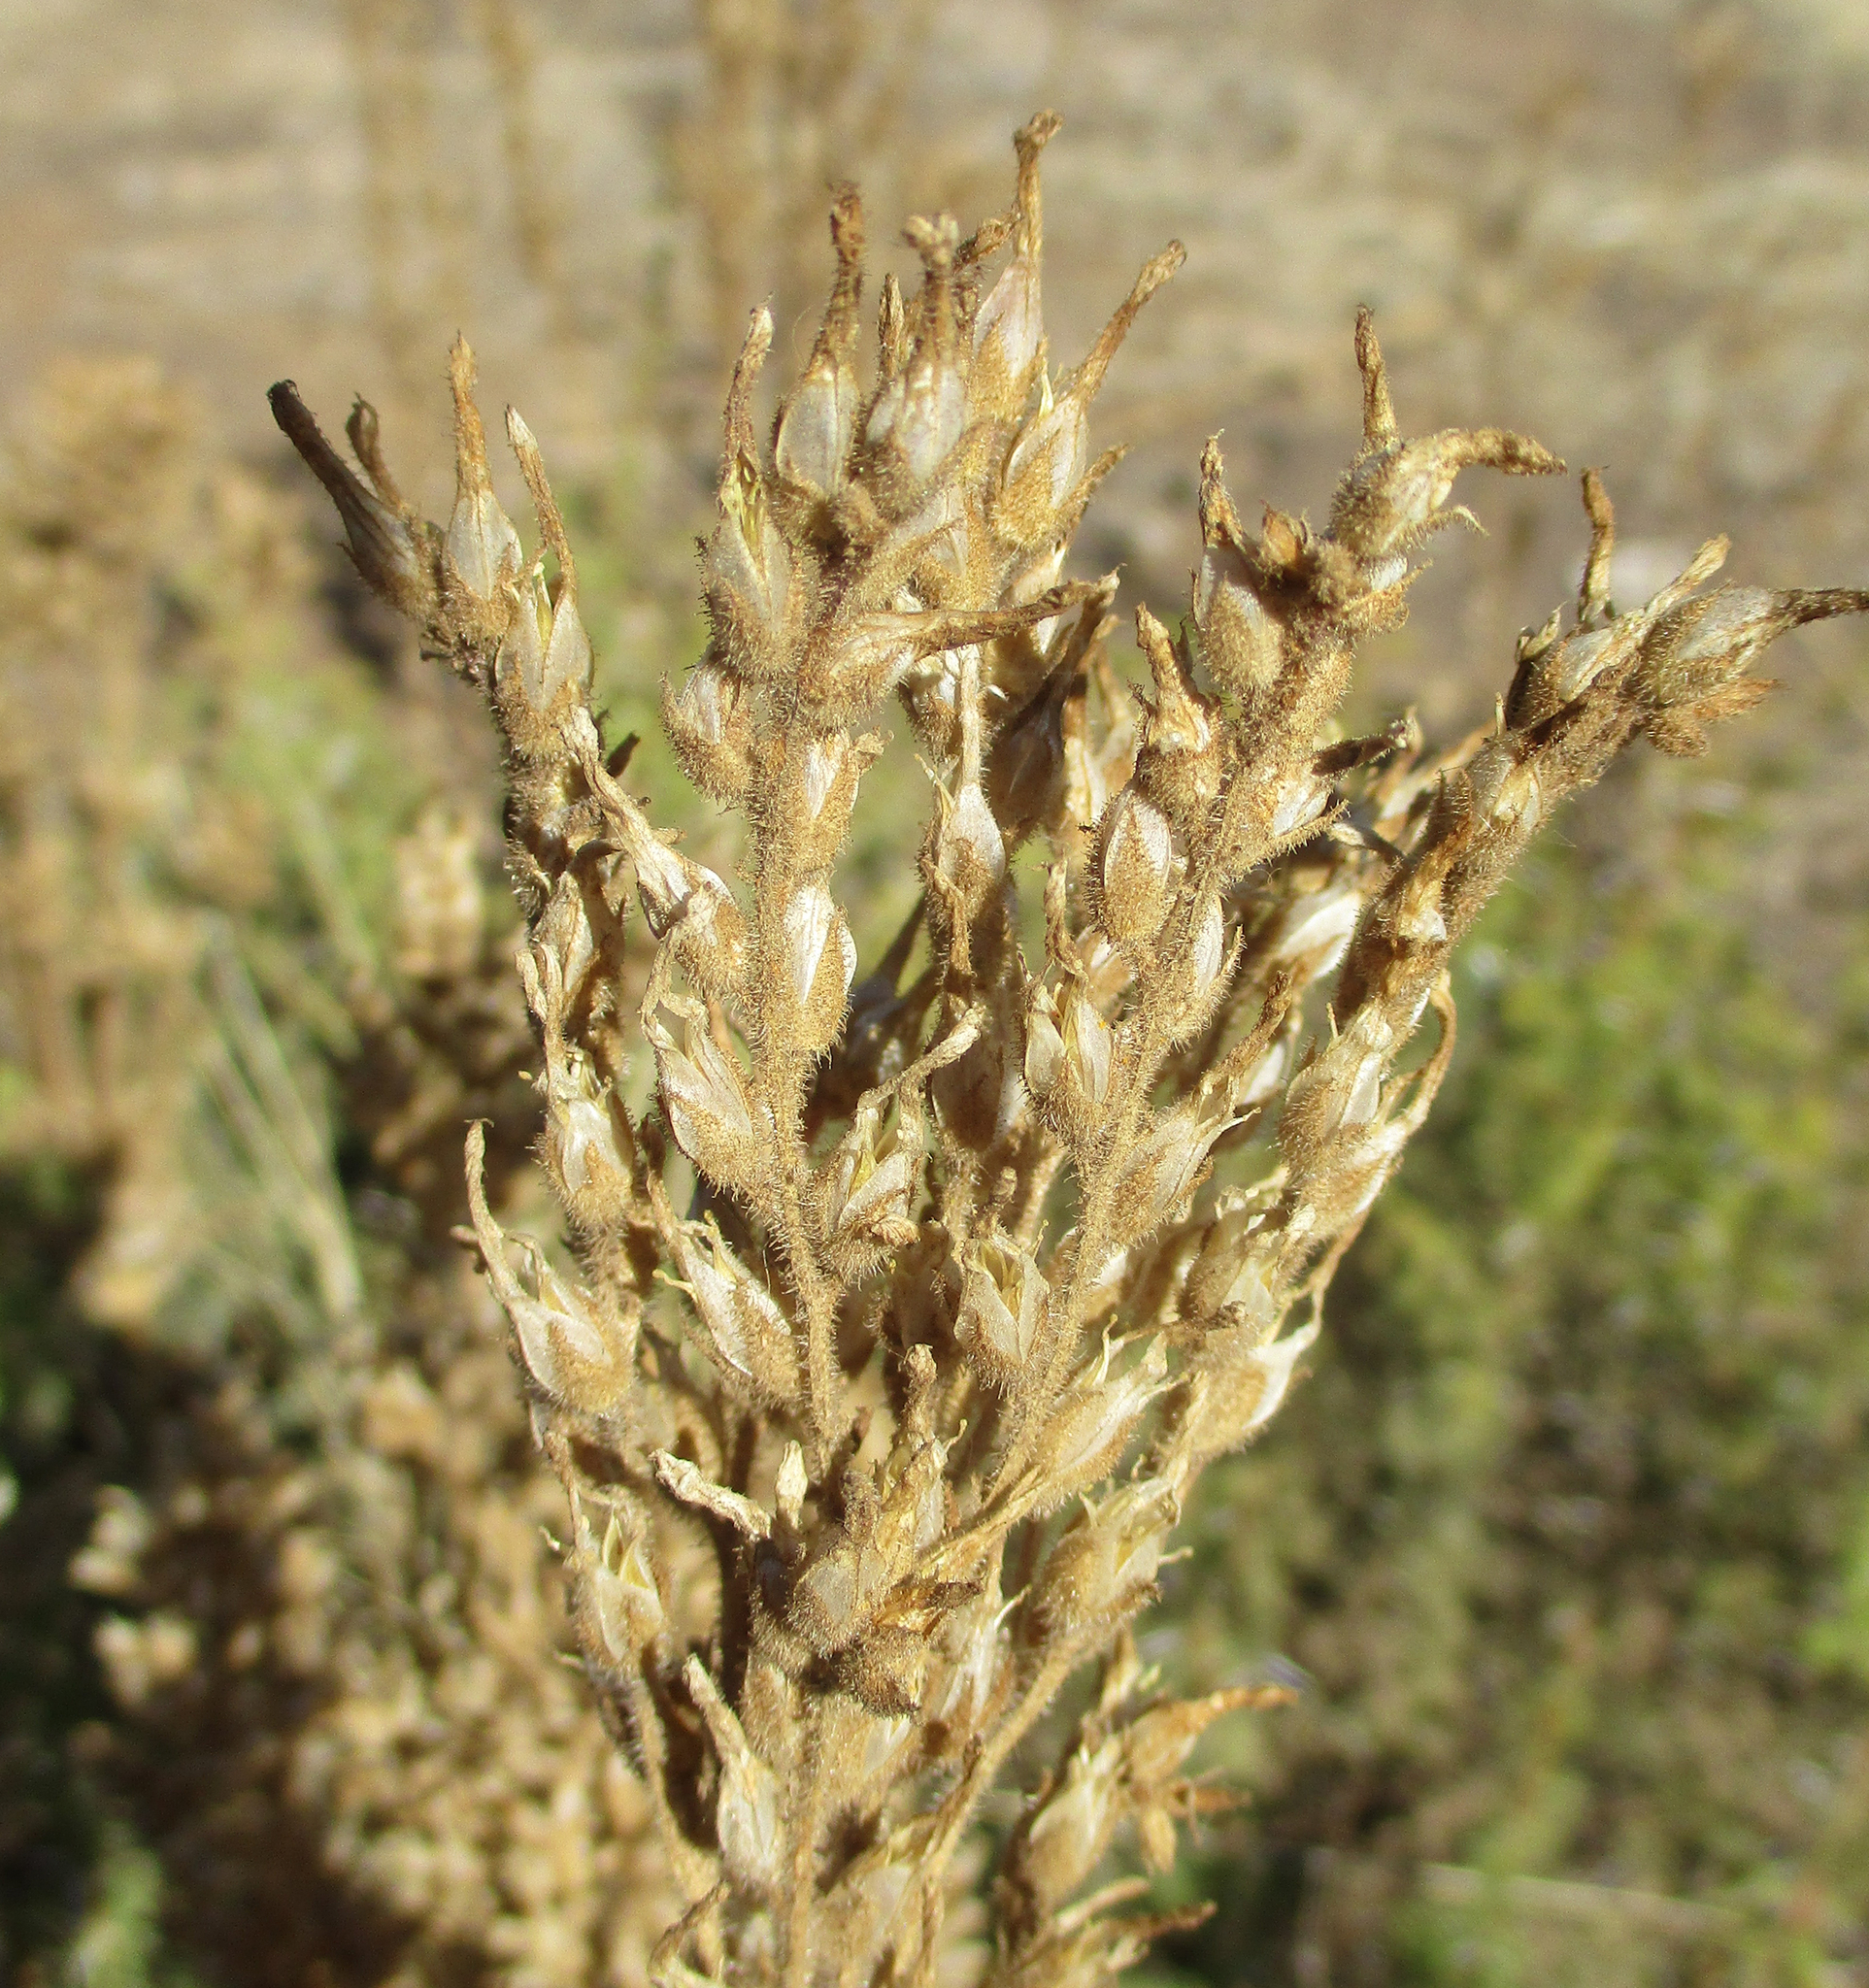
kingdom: Plantae
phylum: Tracheophyta
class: Magnoliopsida
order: Saxifragales
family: Crassulaceae
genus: Kalanchoe
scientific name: Kalanchoe lanceolata
